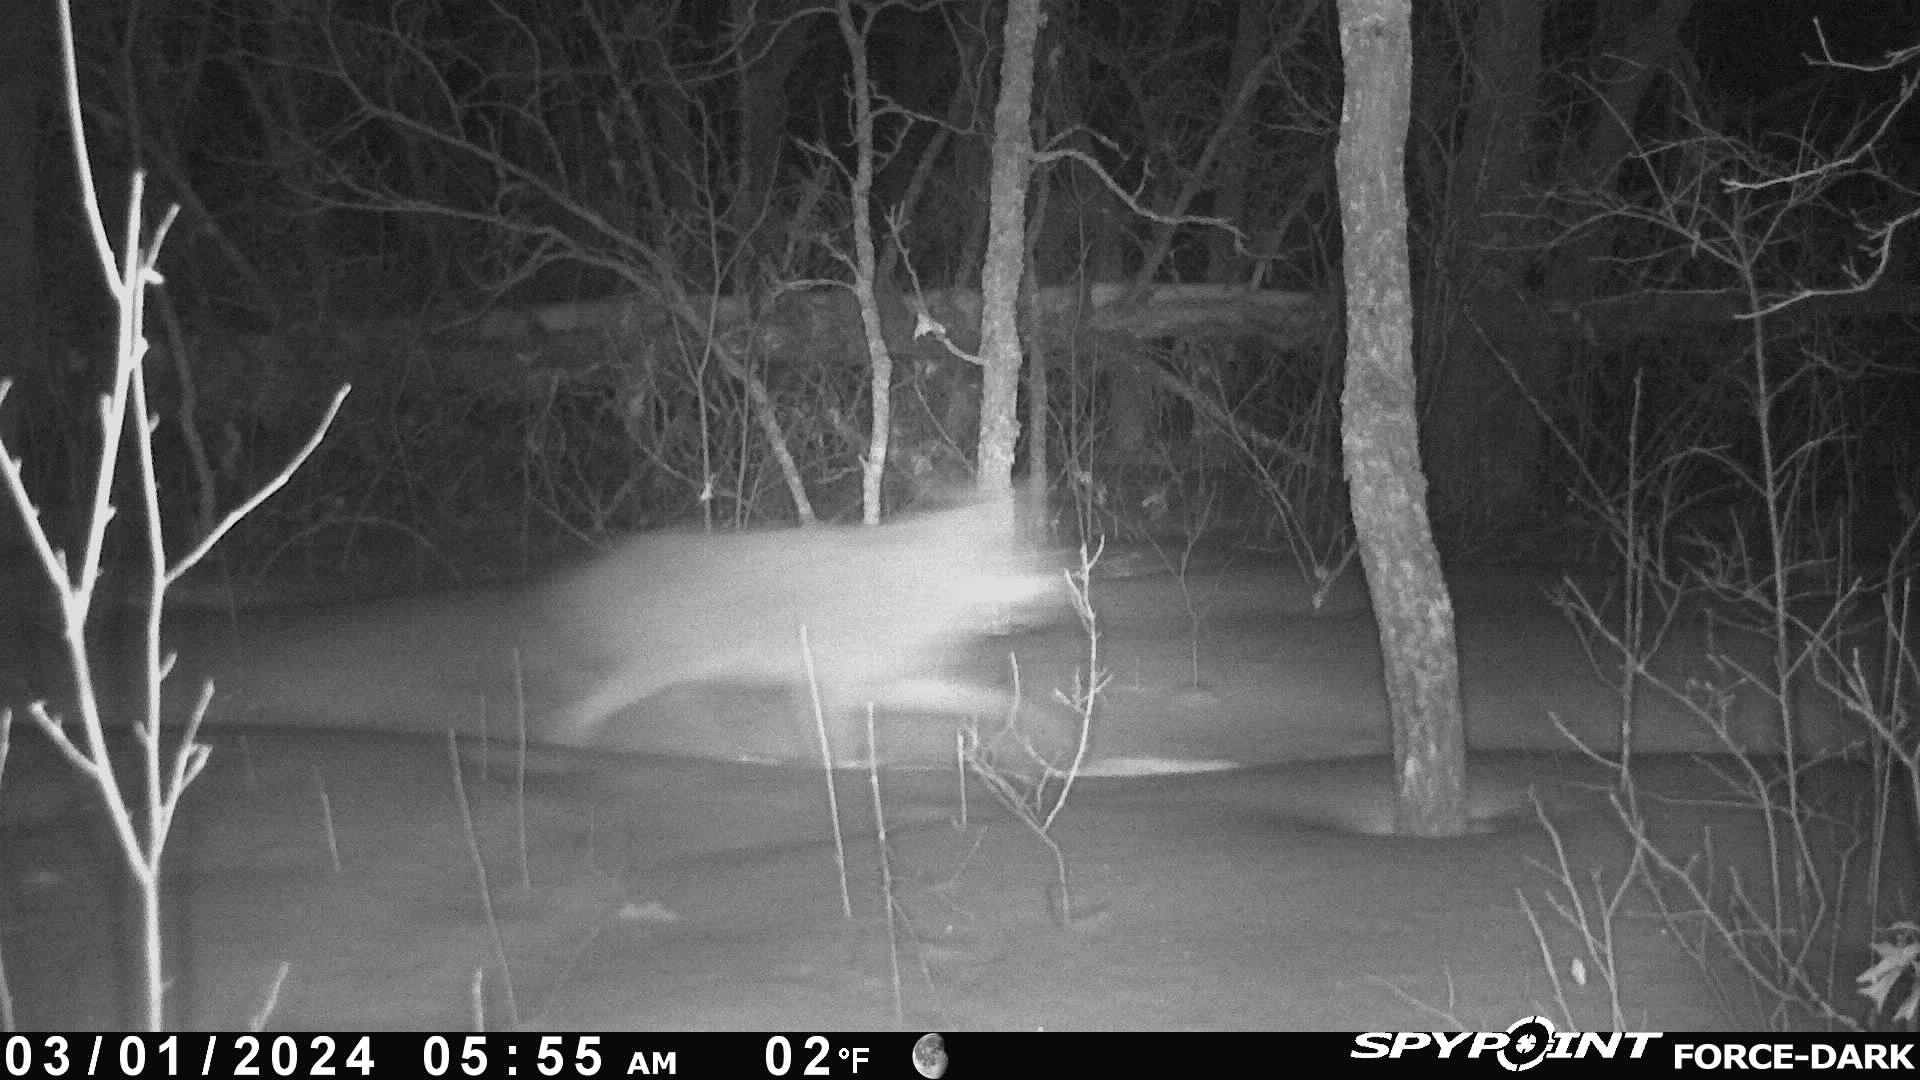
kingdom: Animalia
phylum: Chordata
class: Mammalia
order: Carnivora
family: Canidae
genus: Canis
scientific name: Canis latrans
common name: Coyote
